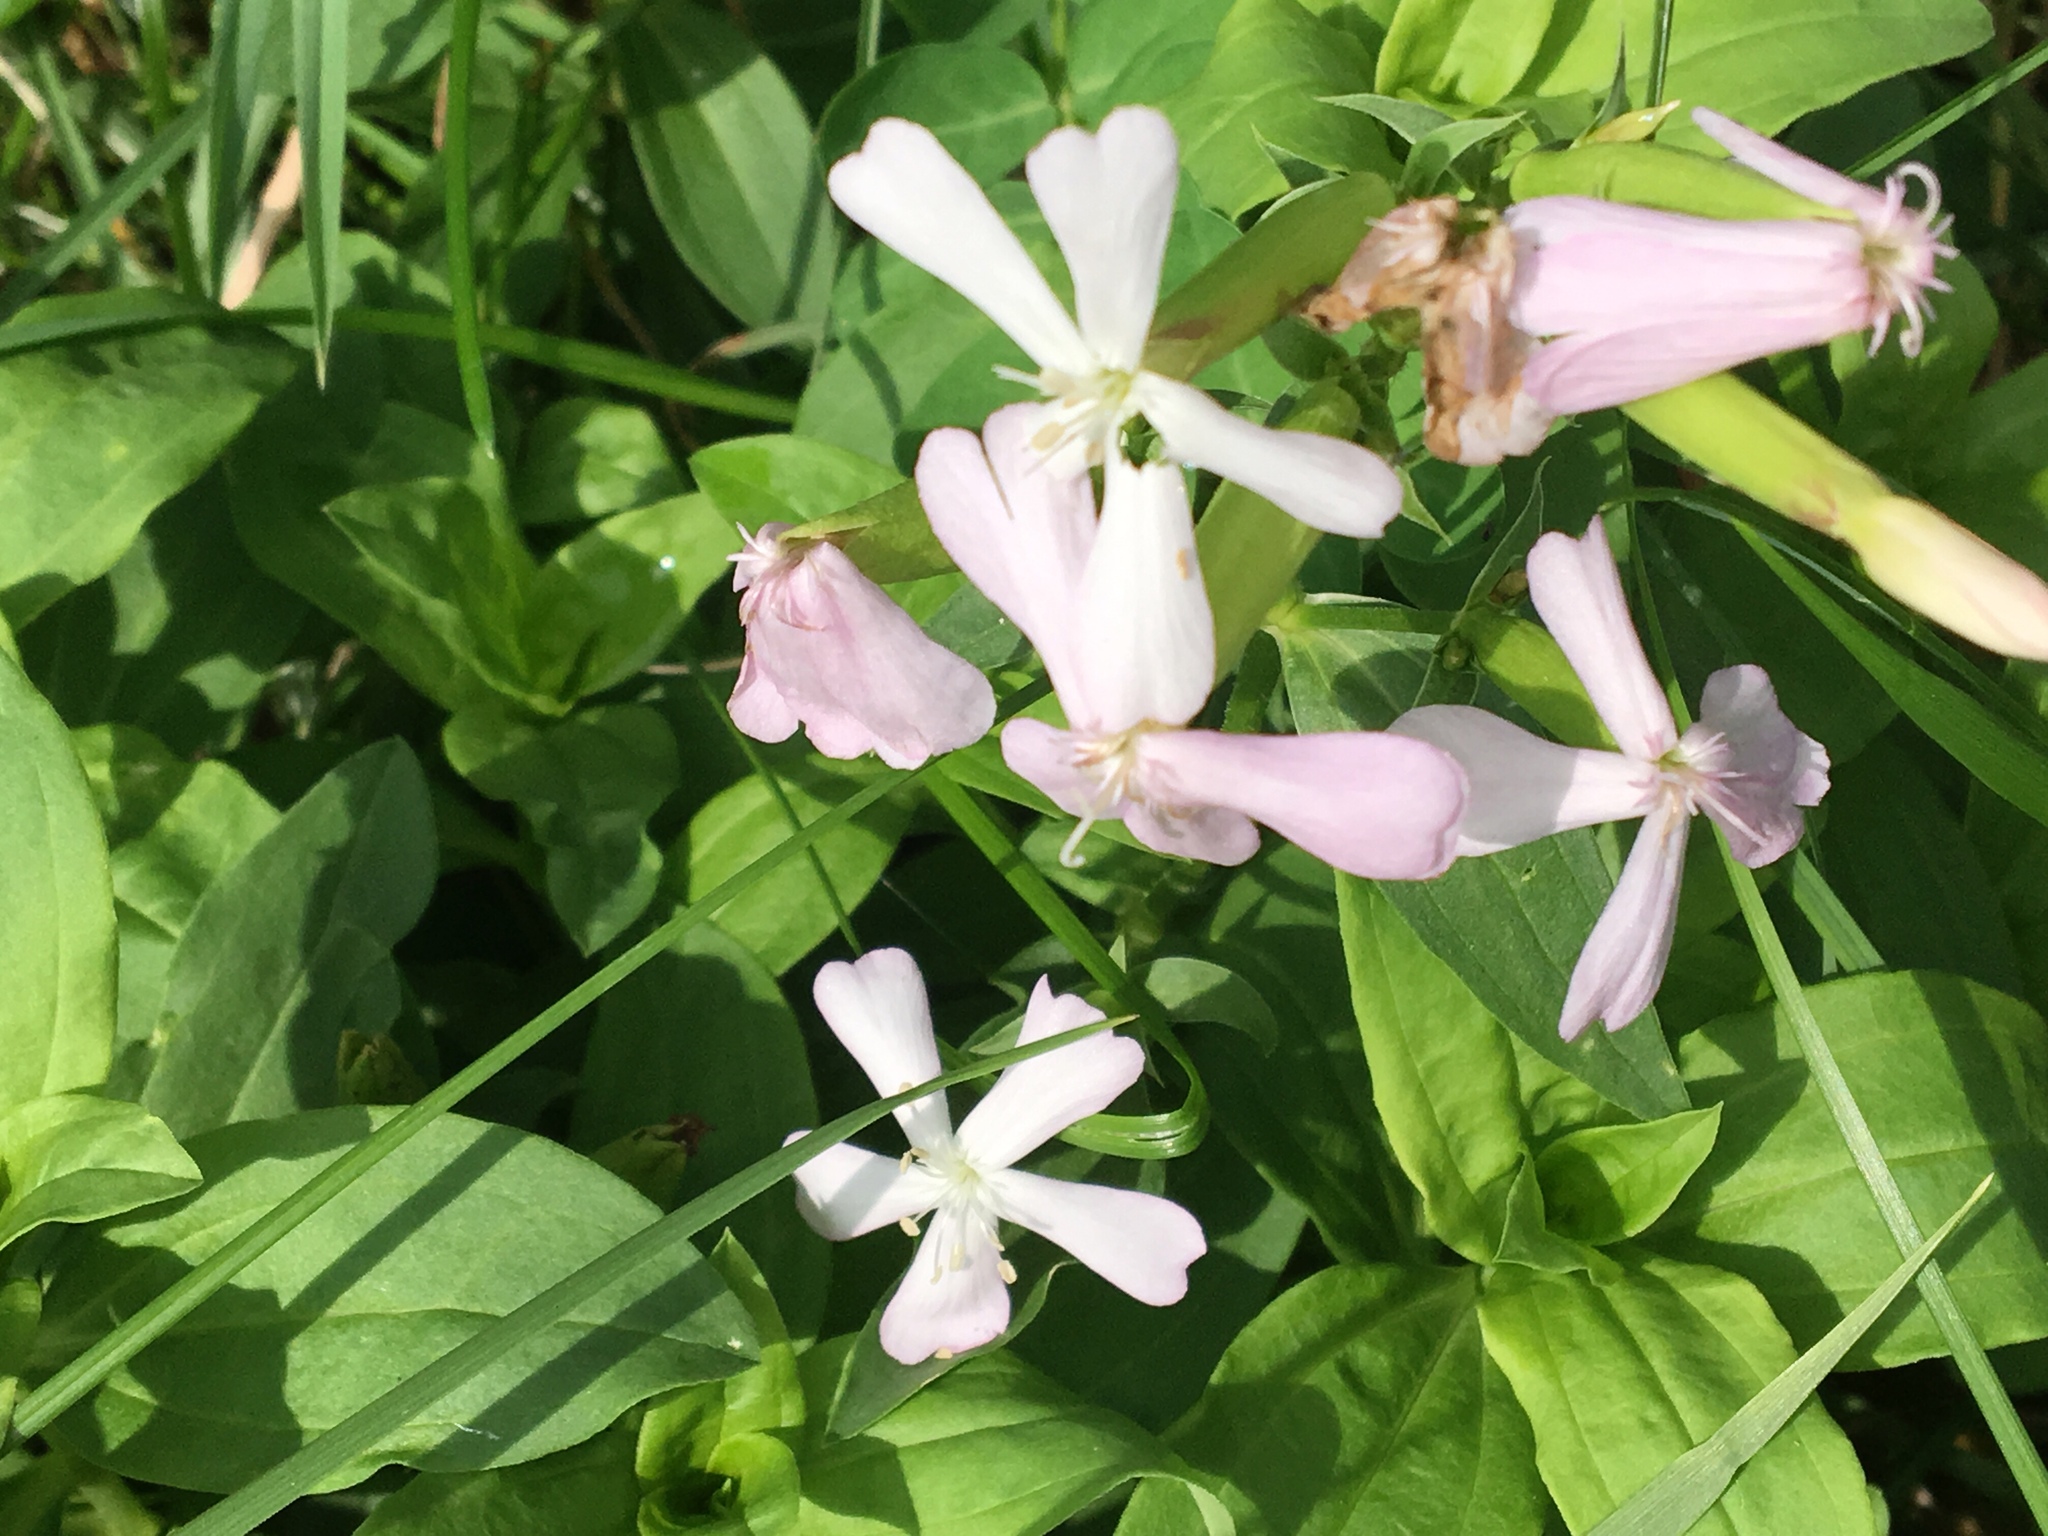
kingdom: Plantae
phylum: Tracheophyta
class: Magnoliopsida
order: Caryophyllales
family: Caryophyllaceae
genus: Saponaria
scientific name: Saponaria officinalis
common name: Soapwort
